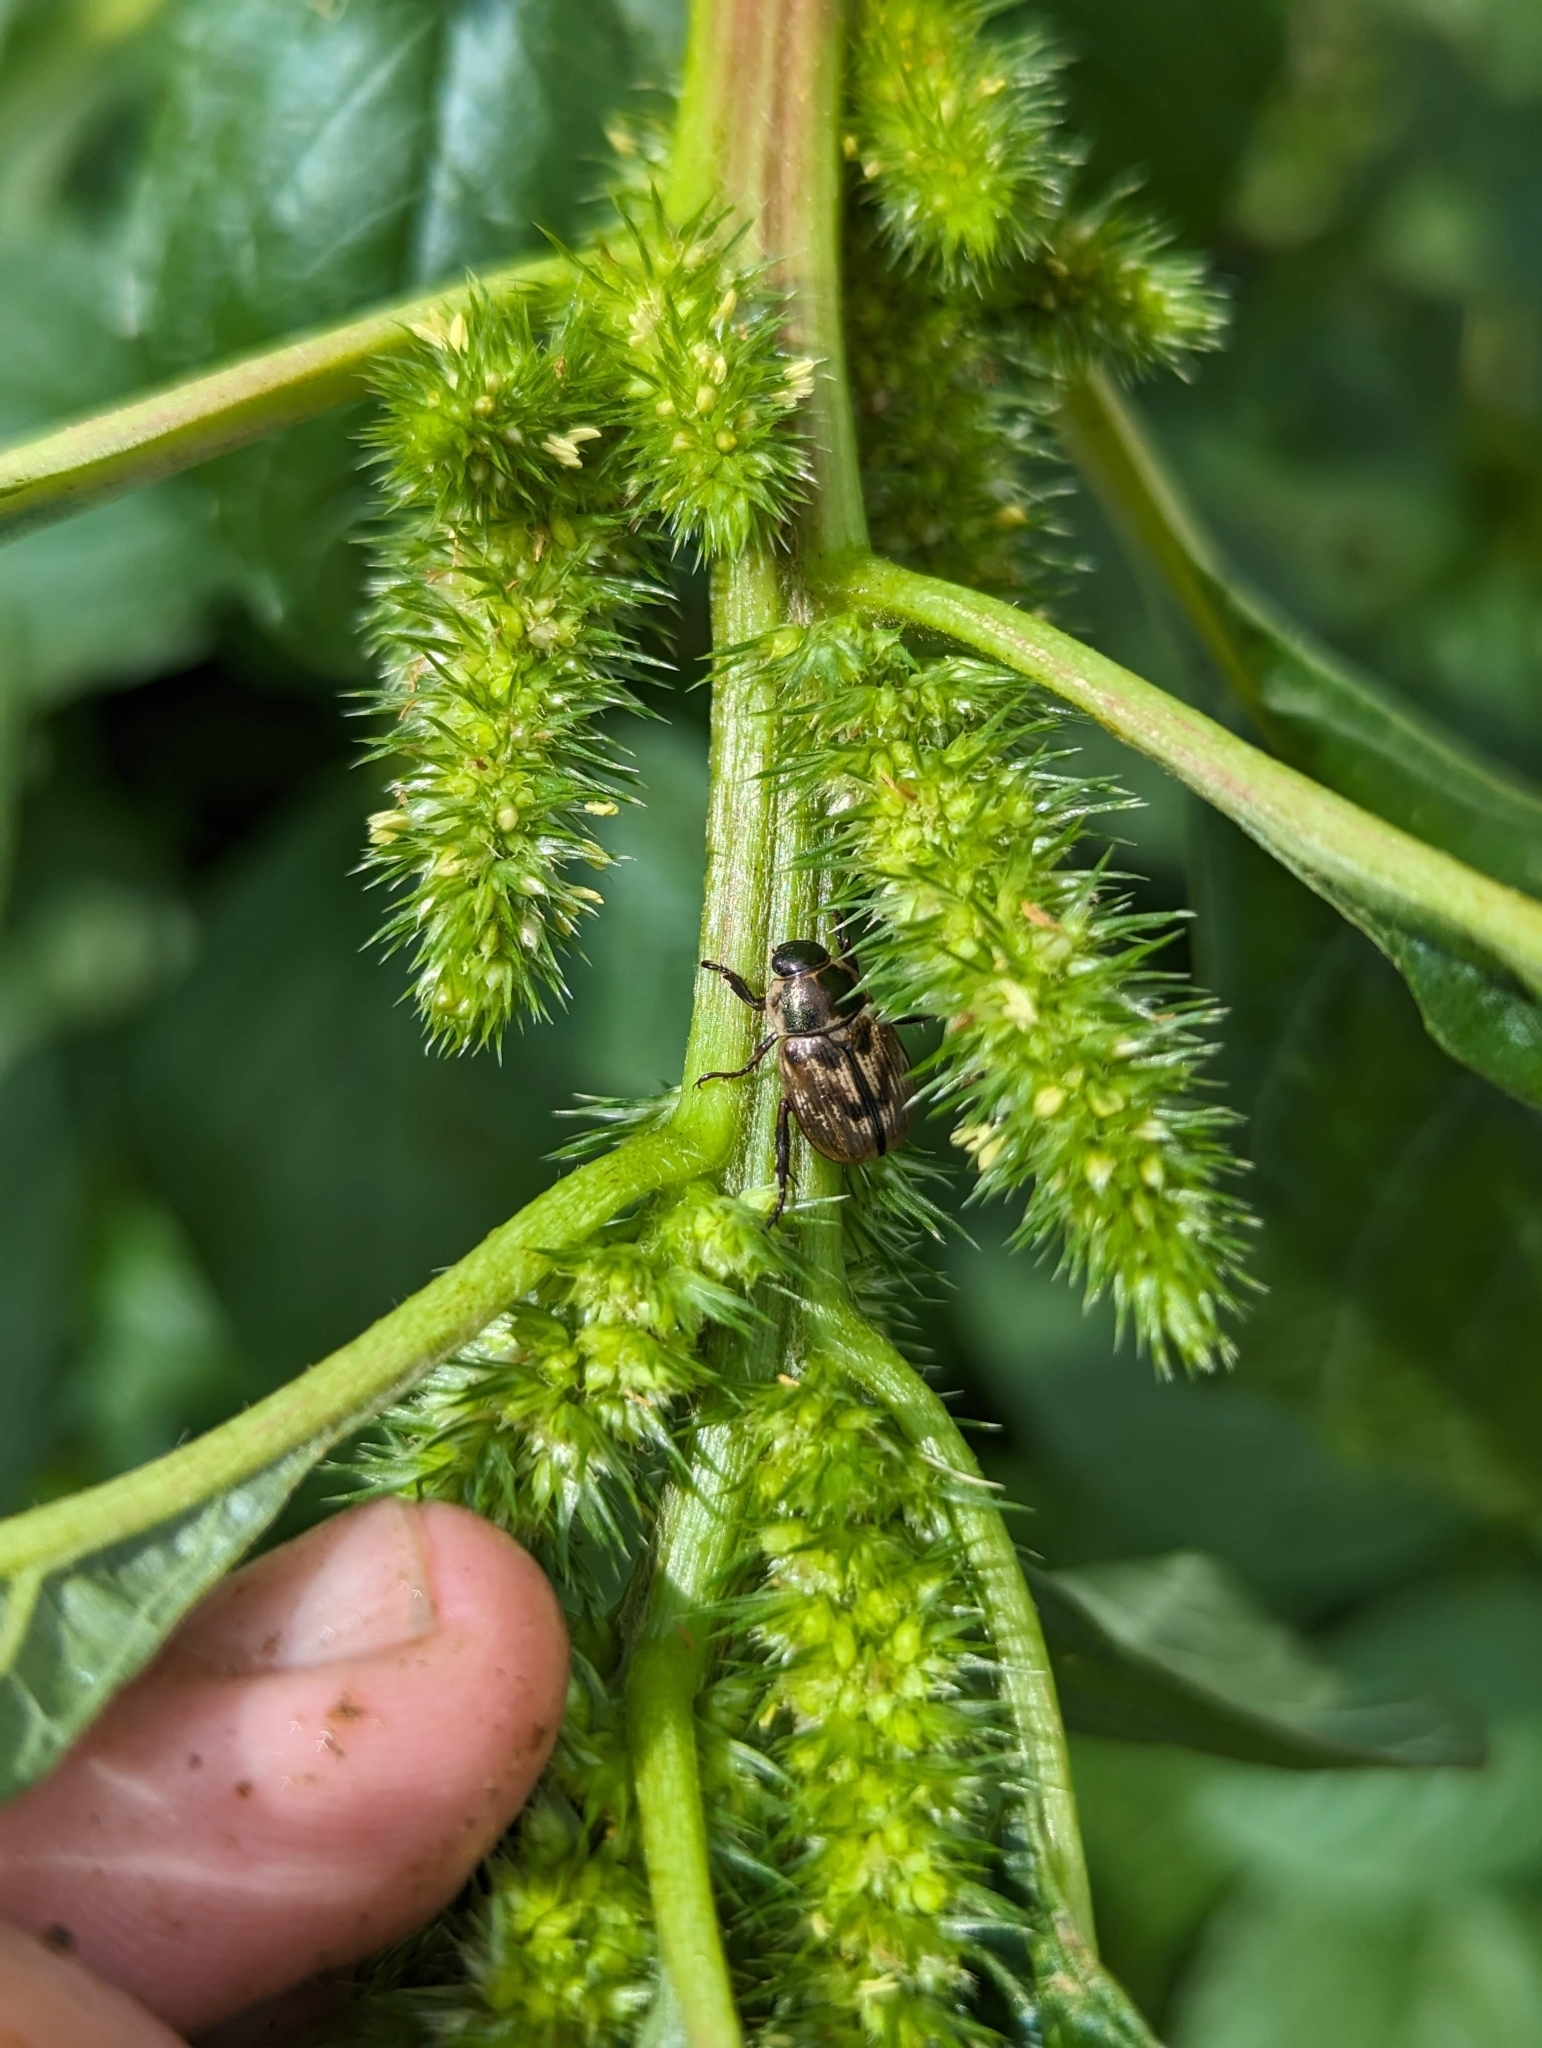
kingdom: Animalia
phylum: Arthropoda
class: Insecta
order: Coleoptera
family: Scarabaeidae
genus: Exomala
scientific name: Exomala orientalis
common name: Oriental beetle
